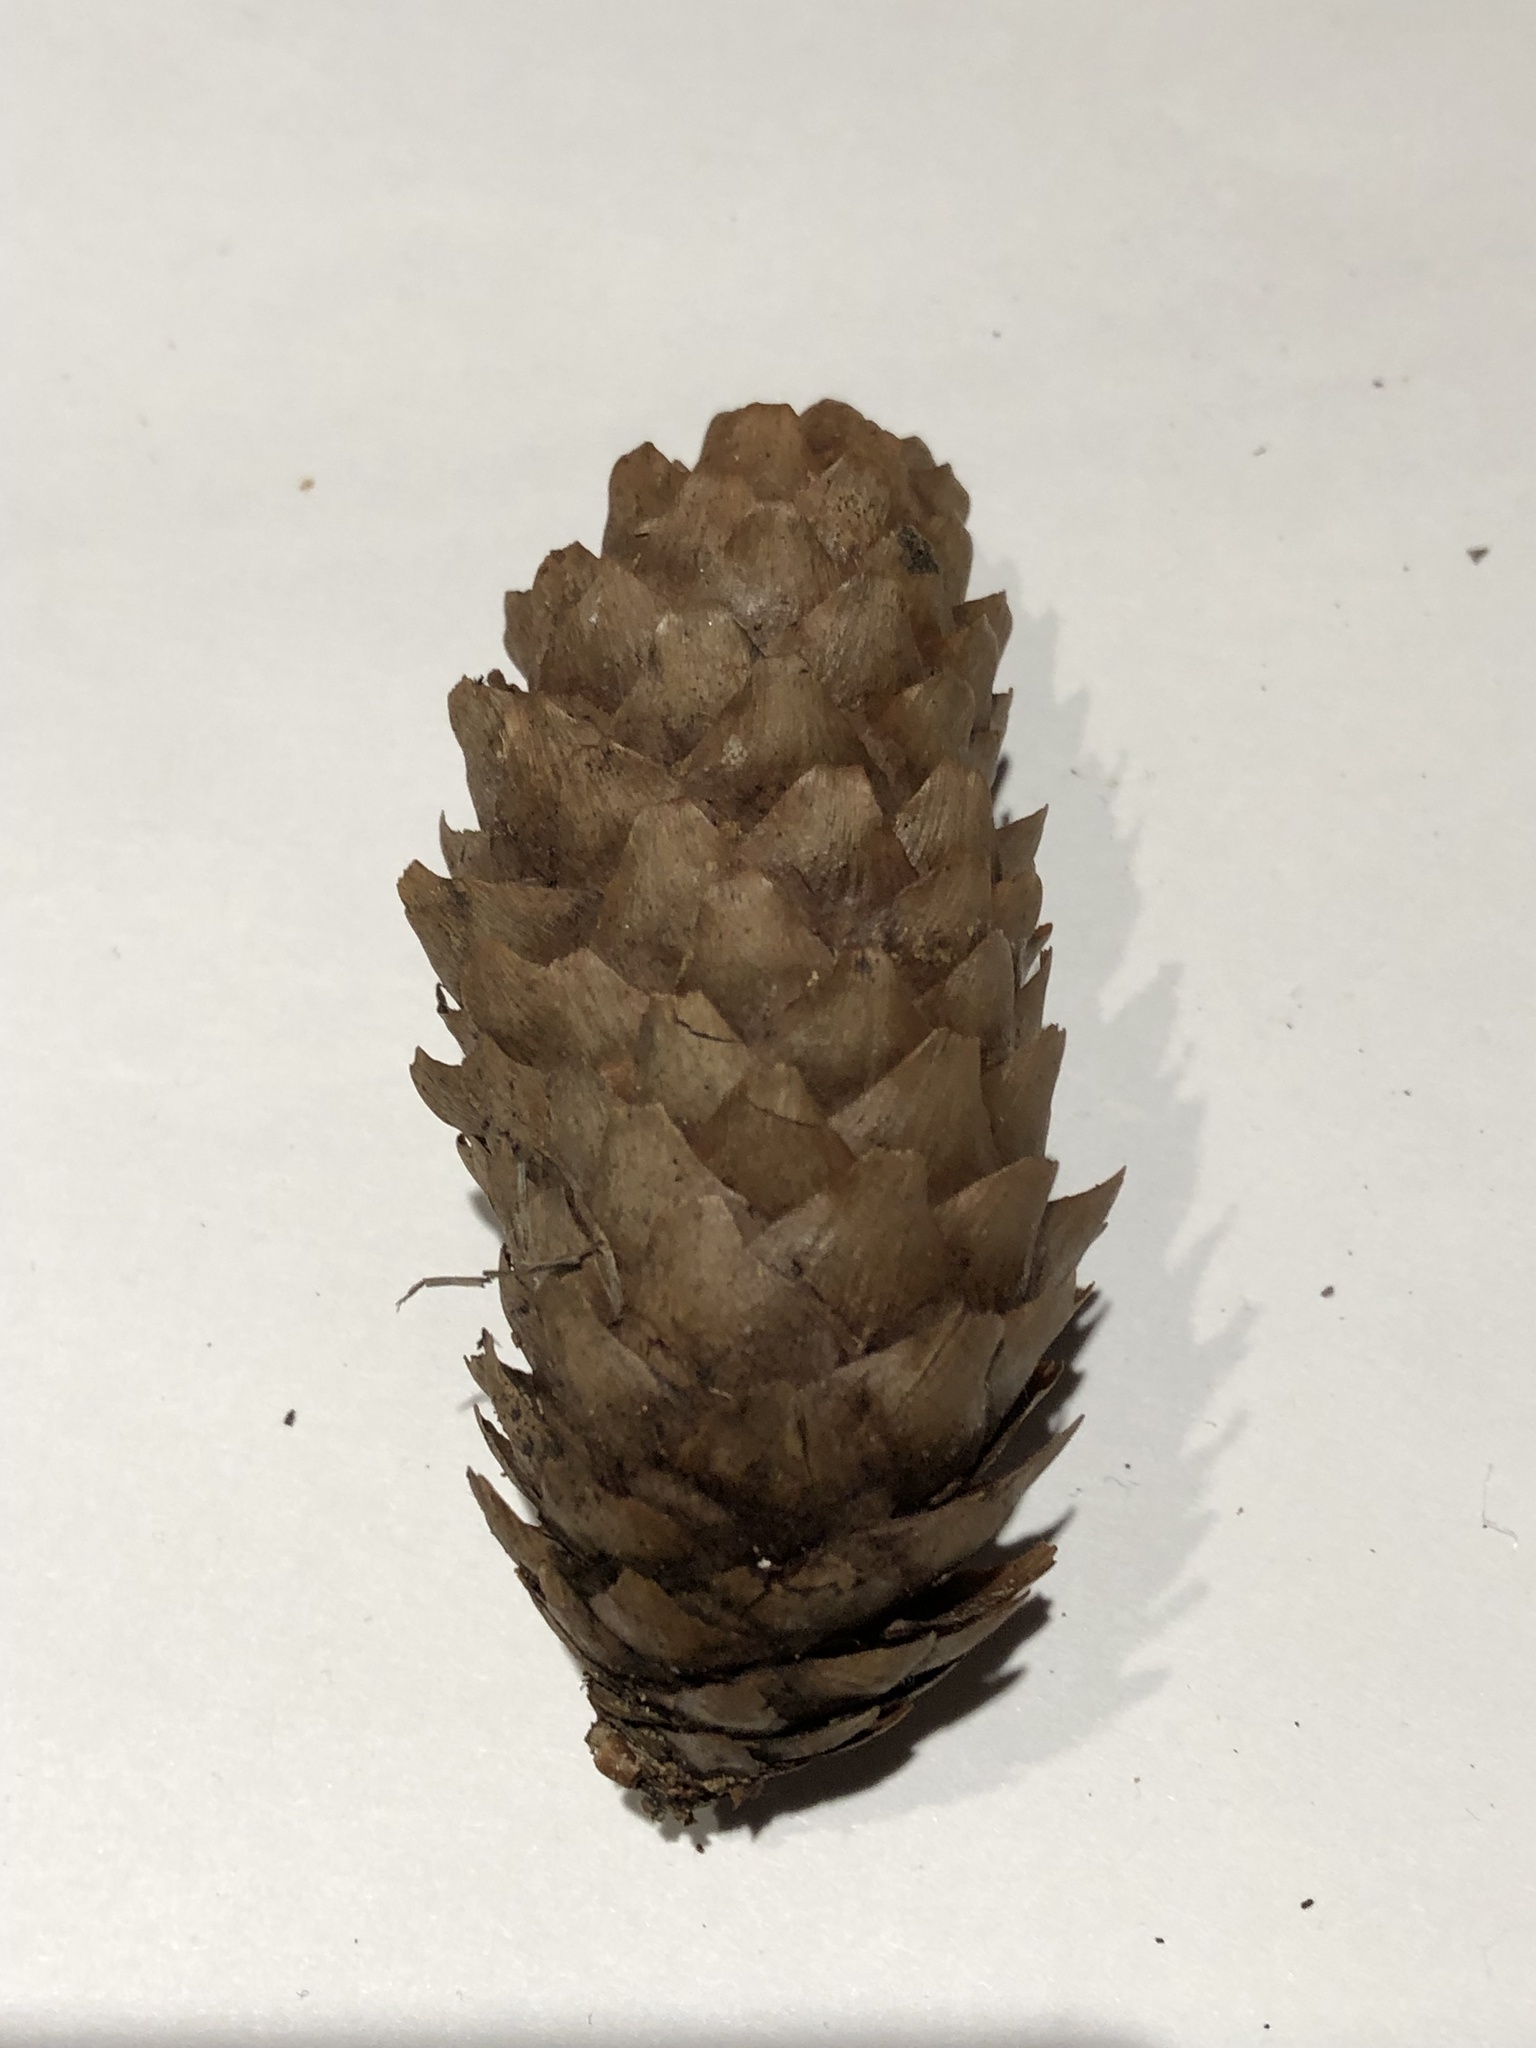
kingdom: Plantae
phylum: Tracheophyta
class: Pinopsida
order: Pinales
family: Pinaceae
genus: Picea
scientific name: Picea abies
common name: Norway spruce
